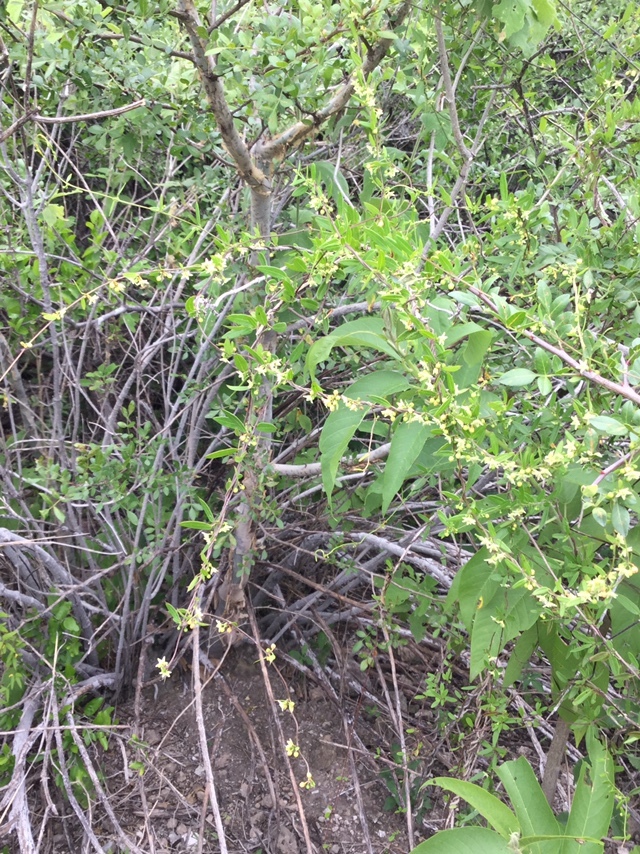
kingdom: Plantae
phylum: Tracheophyta
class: Magnoliopsida
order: Gentianales
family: Apocynaceae
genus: Metastelma
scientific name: Metastelma californicum
